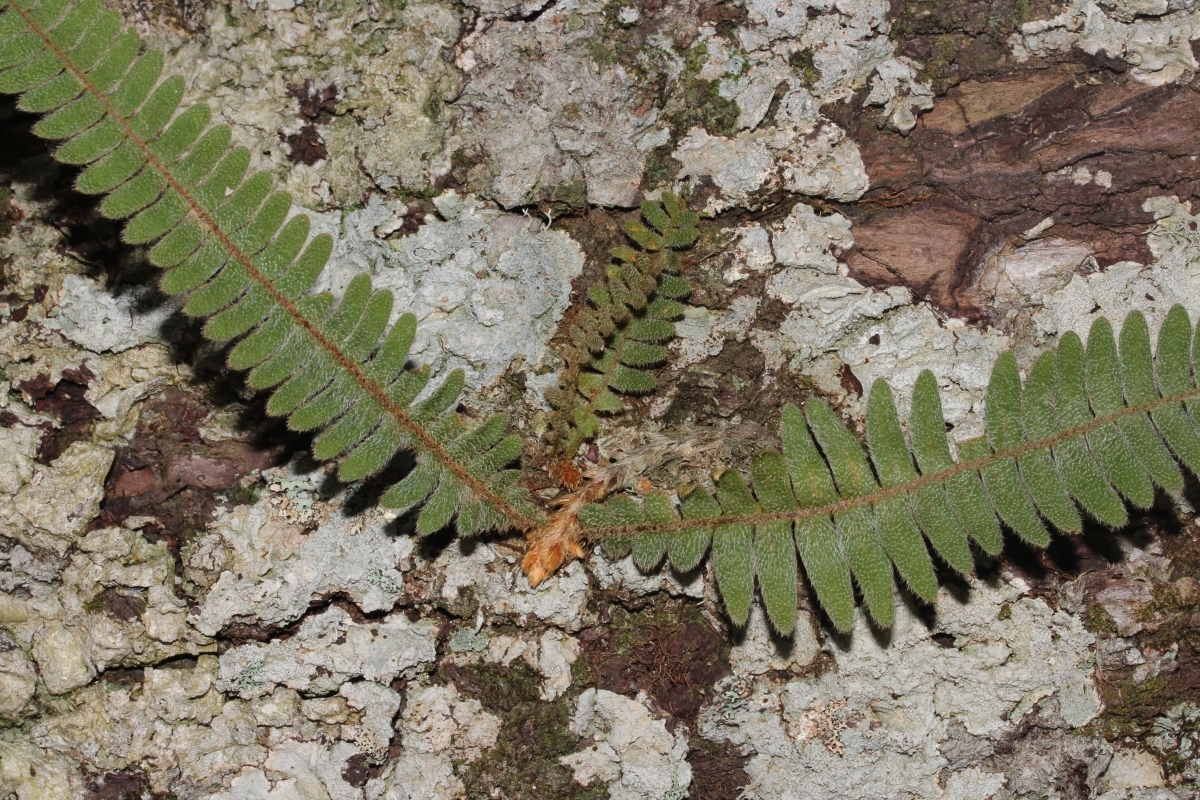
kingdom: Plantae
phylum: Tracheophyta
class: Polypodiopsida
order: Polypodiales
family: Polypodiaceae
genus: Pleopeltis
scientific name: Pleopeltis
